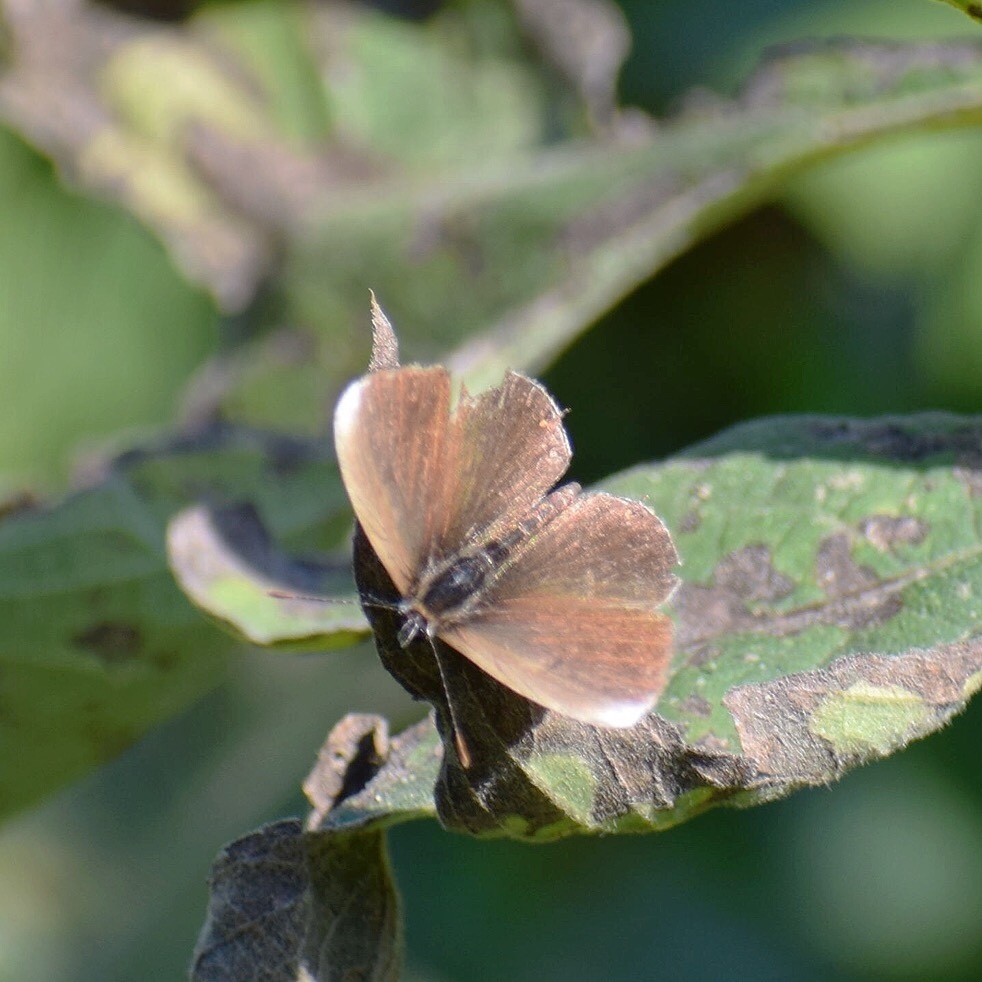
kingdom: Animalia
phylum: Arthropoda
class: Insecta
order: Lepidoptera
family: Lycaenidae
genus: Eicochrysops
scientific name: Eicochrysops hippocrates
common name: White-tipped blue
